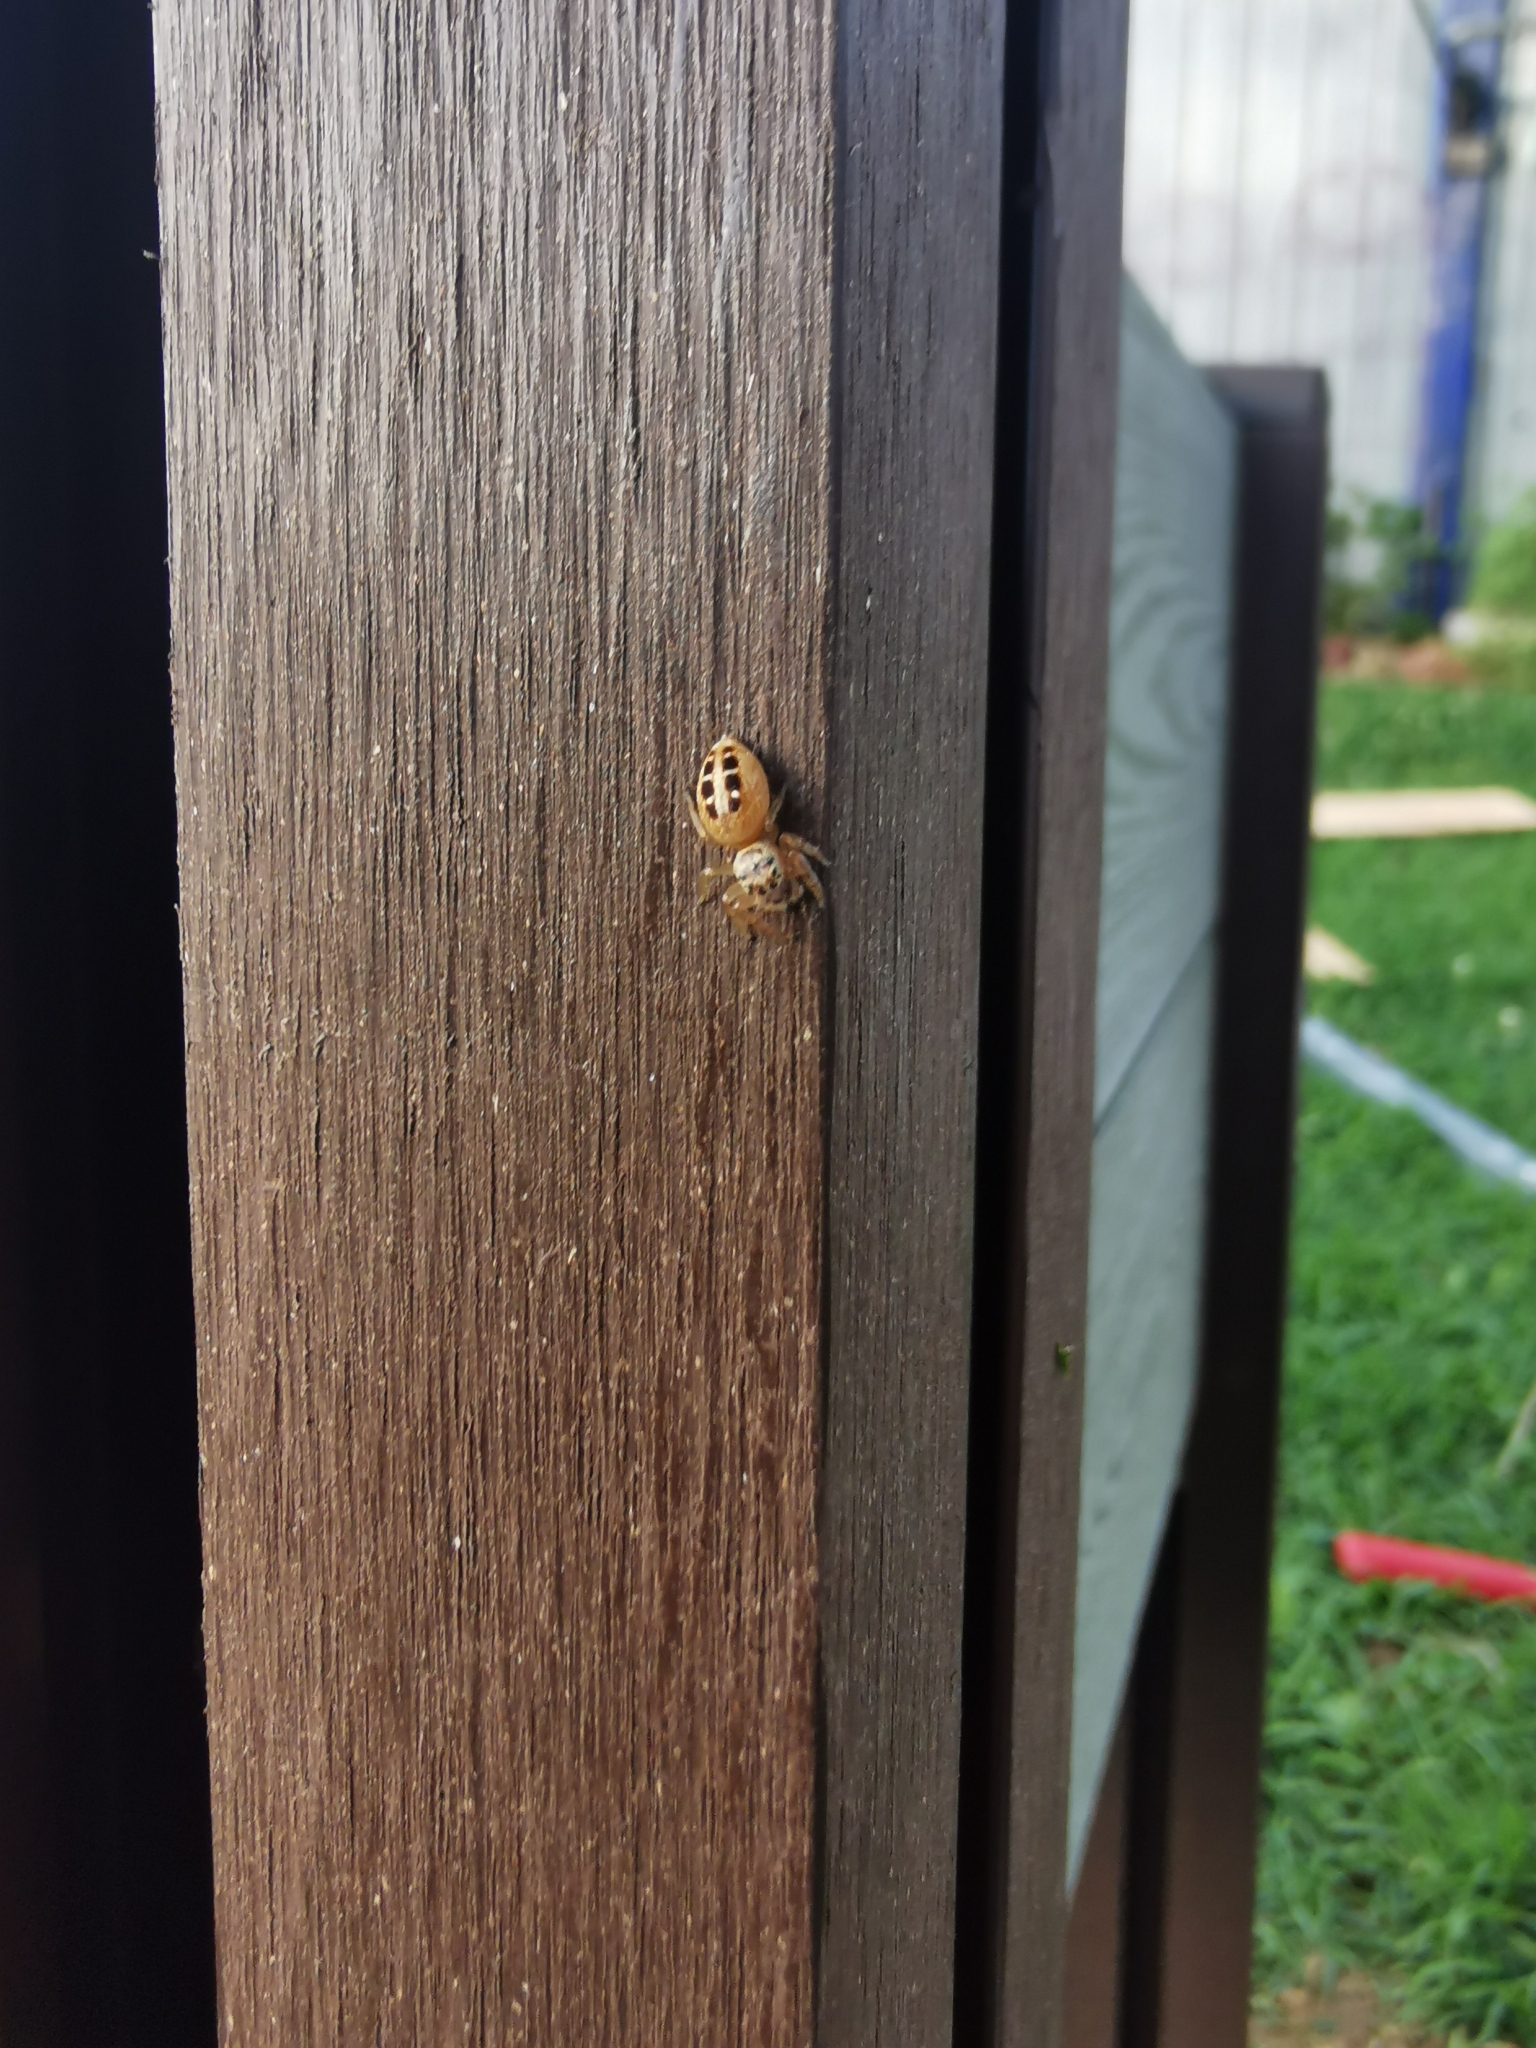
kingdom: Animalia
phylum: Arthropoda
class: Arachnida
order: Araneae
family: Salticidae
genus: Opisthoncus
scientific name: Opisthoncus sexmaculatus
